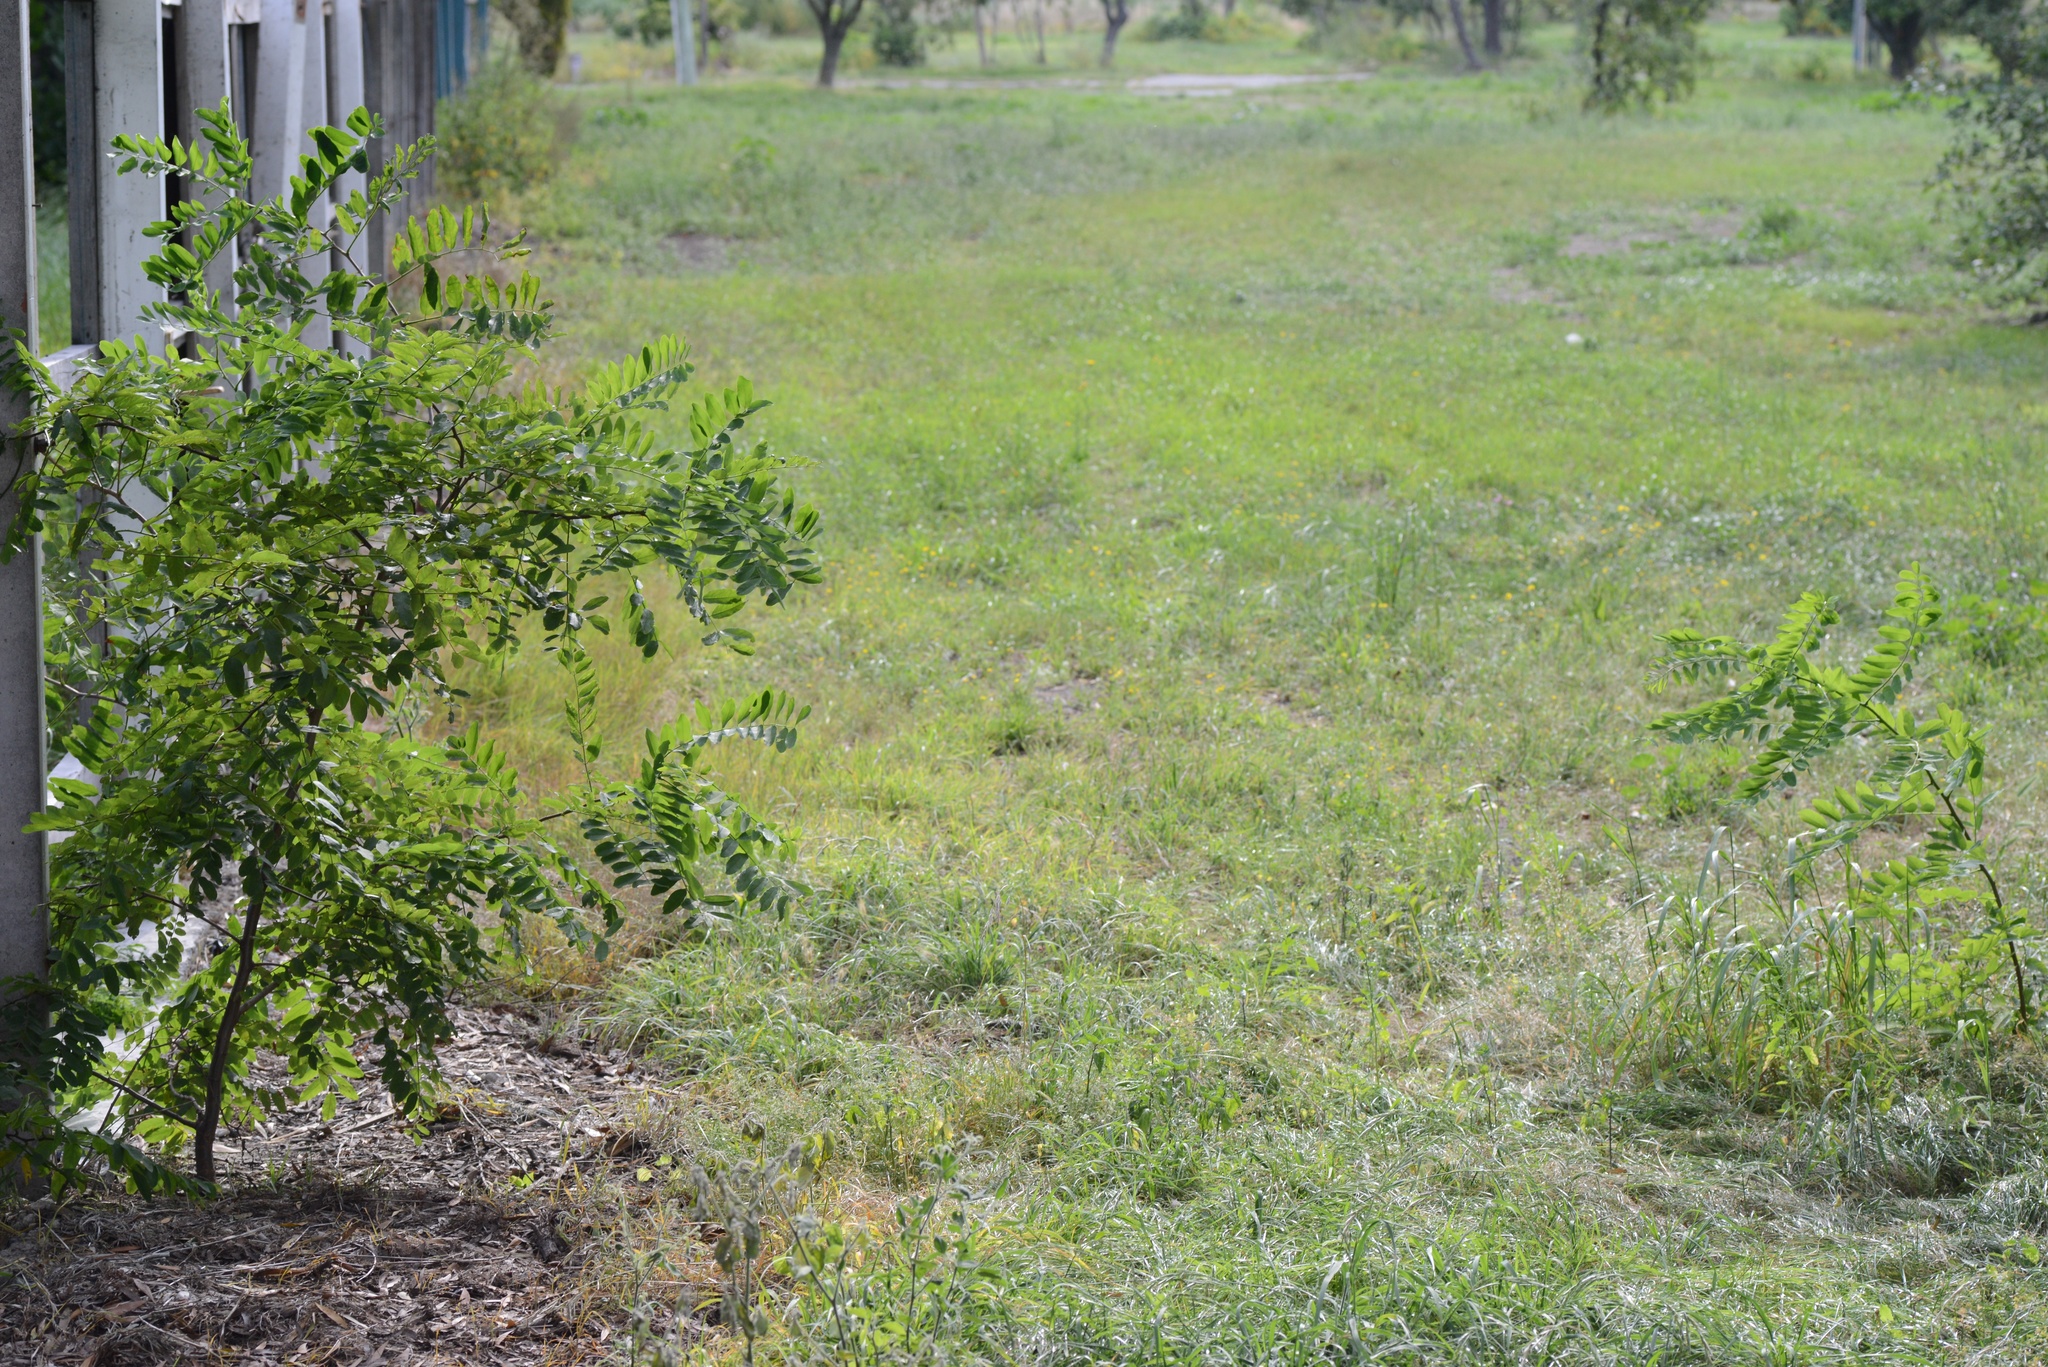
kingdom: Plantae
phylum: Tracheophyta
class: Magnoliopsida
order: Fabales
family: Fabaceae
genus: Robinia
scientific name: Robinia pseudoacacia
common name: Black locust
